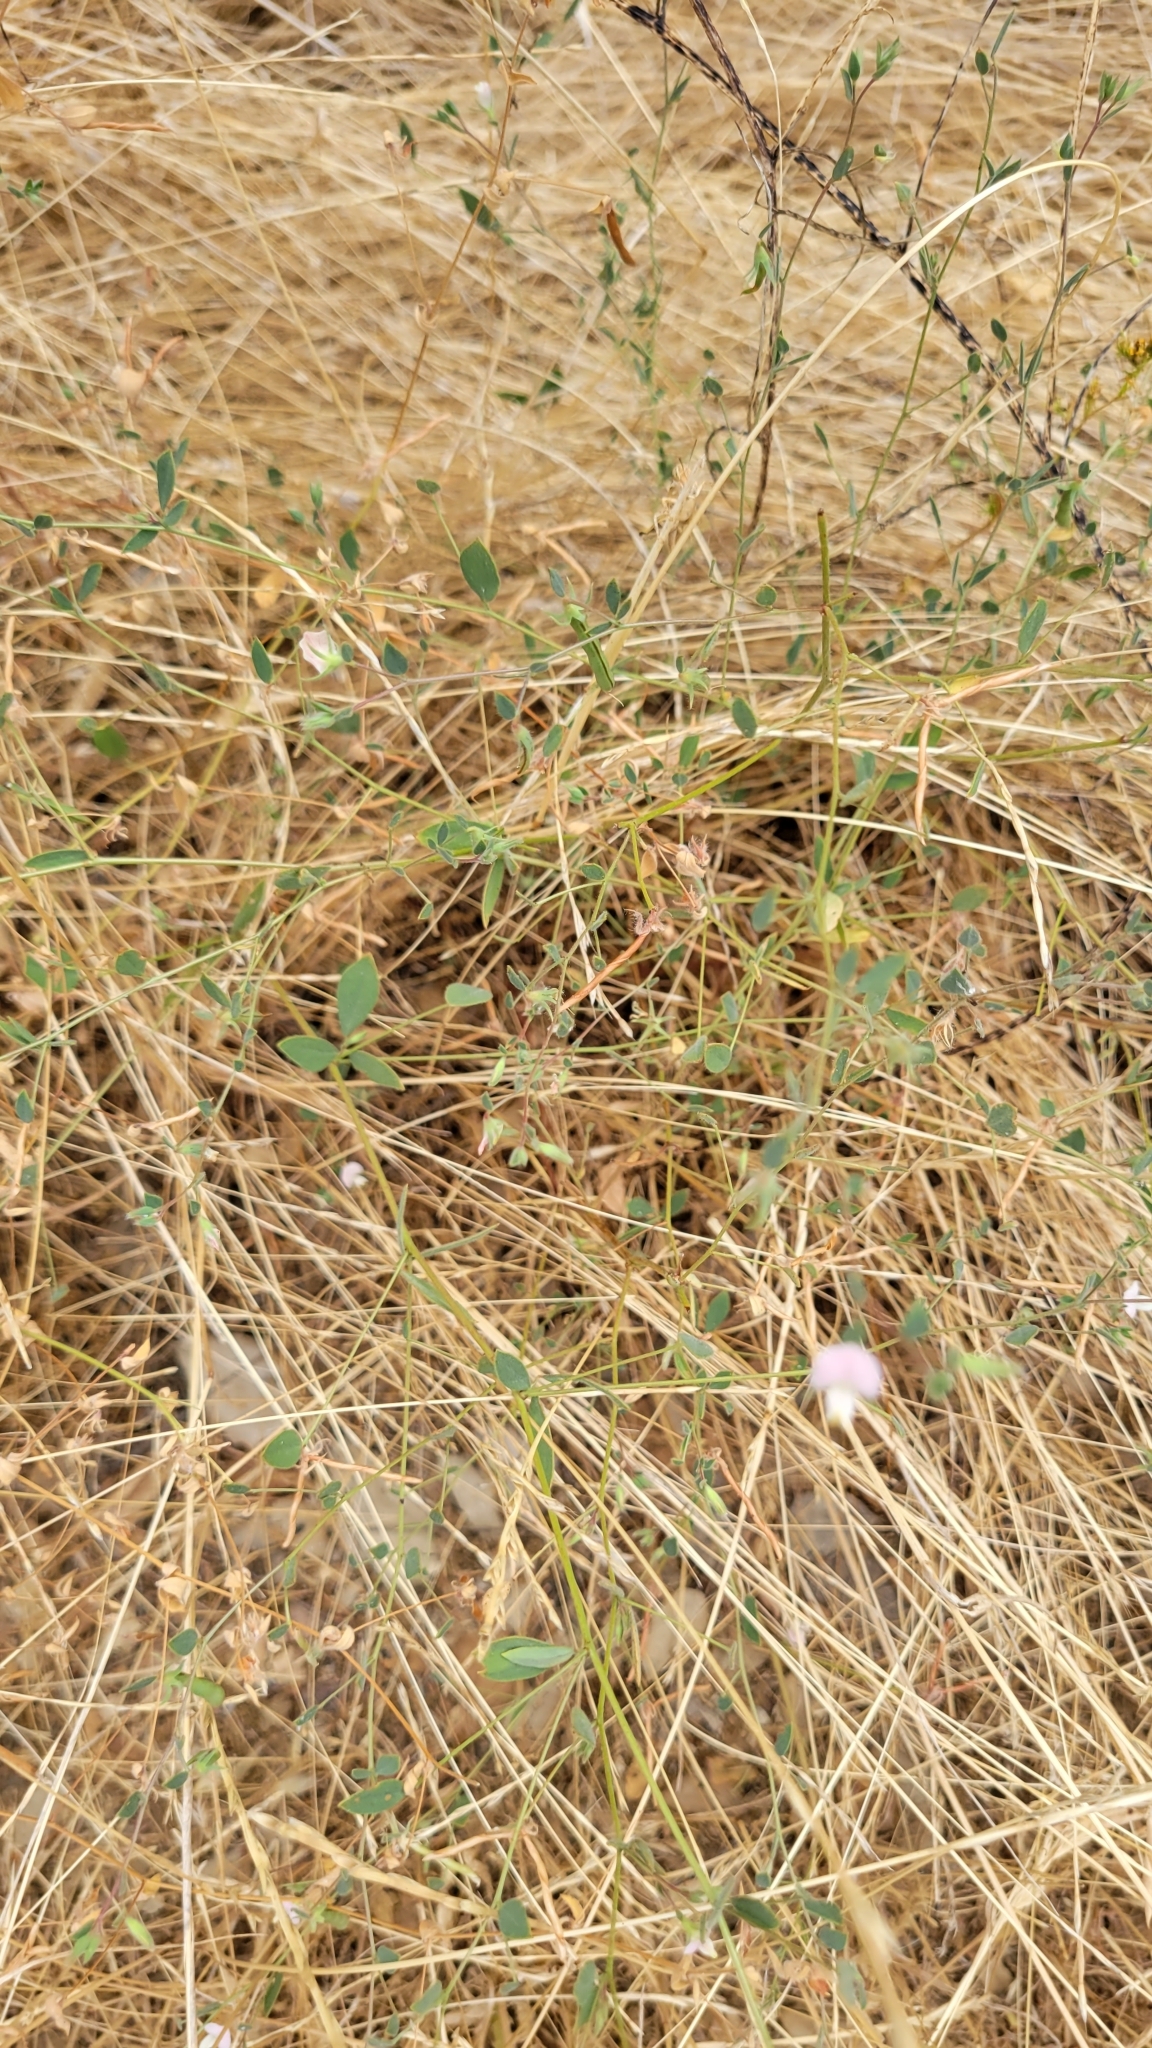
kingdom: Plantae
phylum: Tracheophyta
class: Magnoliopsida
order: Fabales
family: Fabaceae
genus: Acmispon
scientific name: Acmispon americanus
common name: American bird's-foot trefoil
